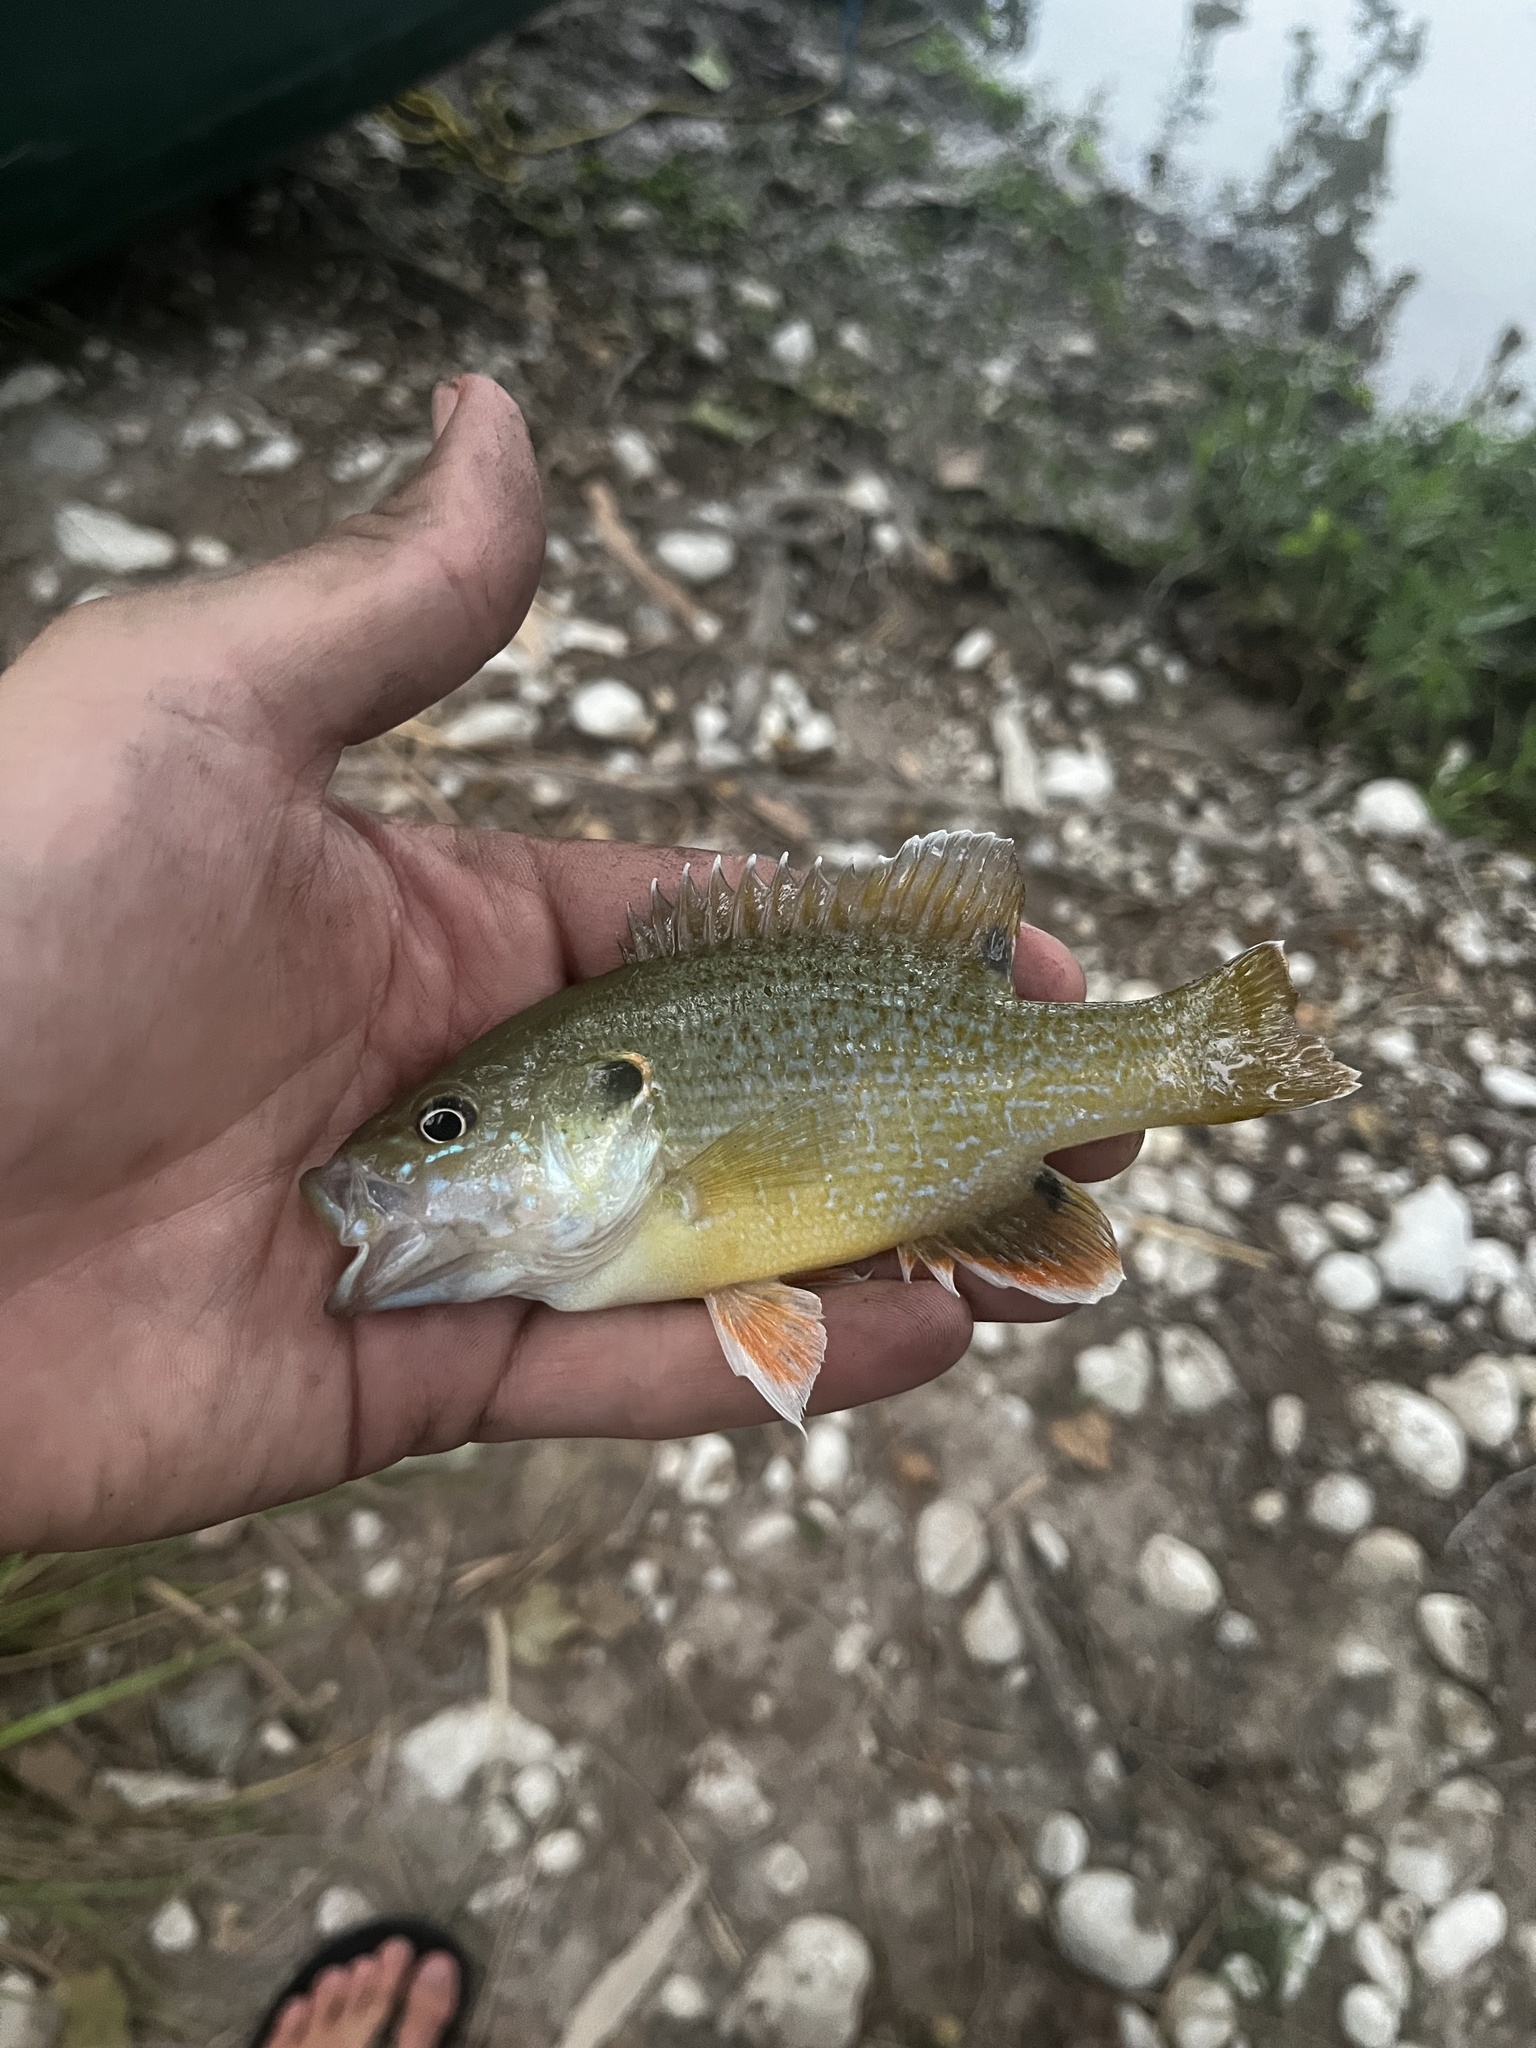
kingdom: Animalia
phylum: Chordata
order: Perciformes
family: Centrarchidae
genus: Lepomis
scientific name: Lepomis cyanellus
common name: Green sunfish
